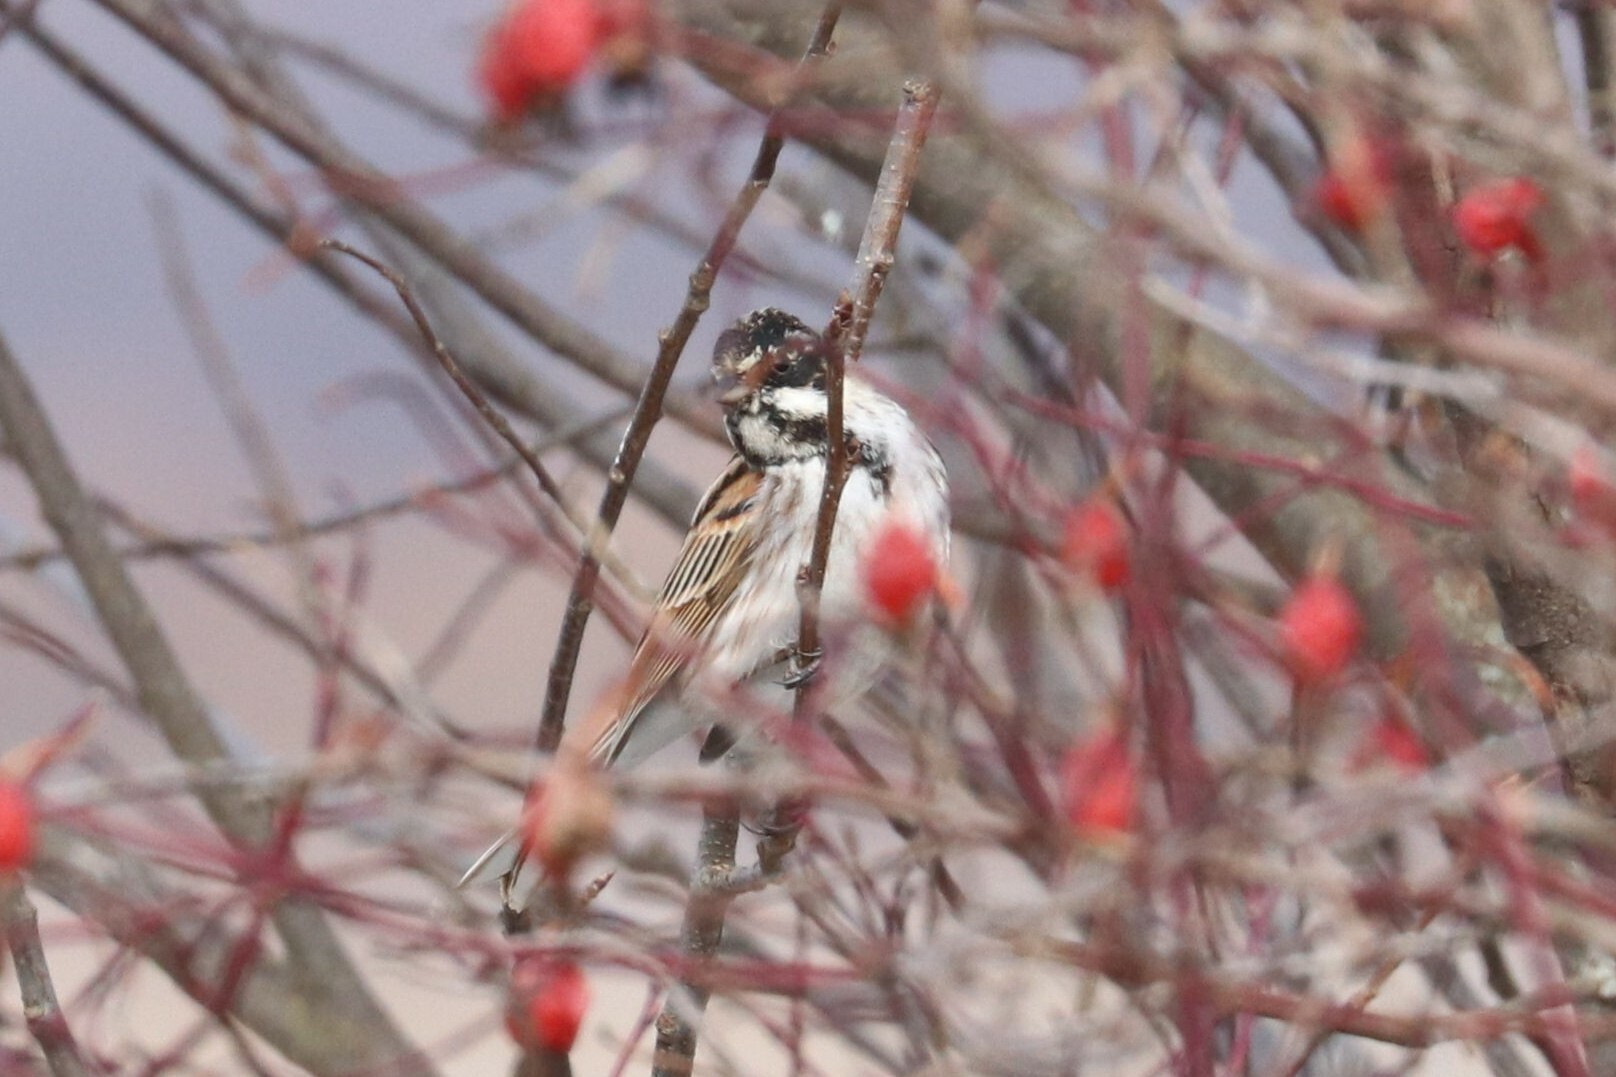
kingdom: Animalia
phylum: Chordata
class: Aves
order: Passeriformes
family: Emberizidae
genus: Emberiza
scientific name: Emberiza schoeniclus
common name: Reed bunting
